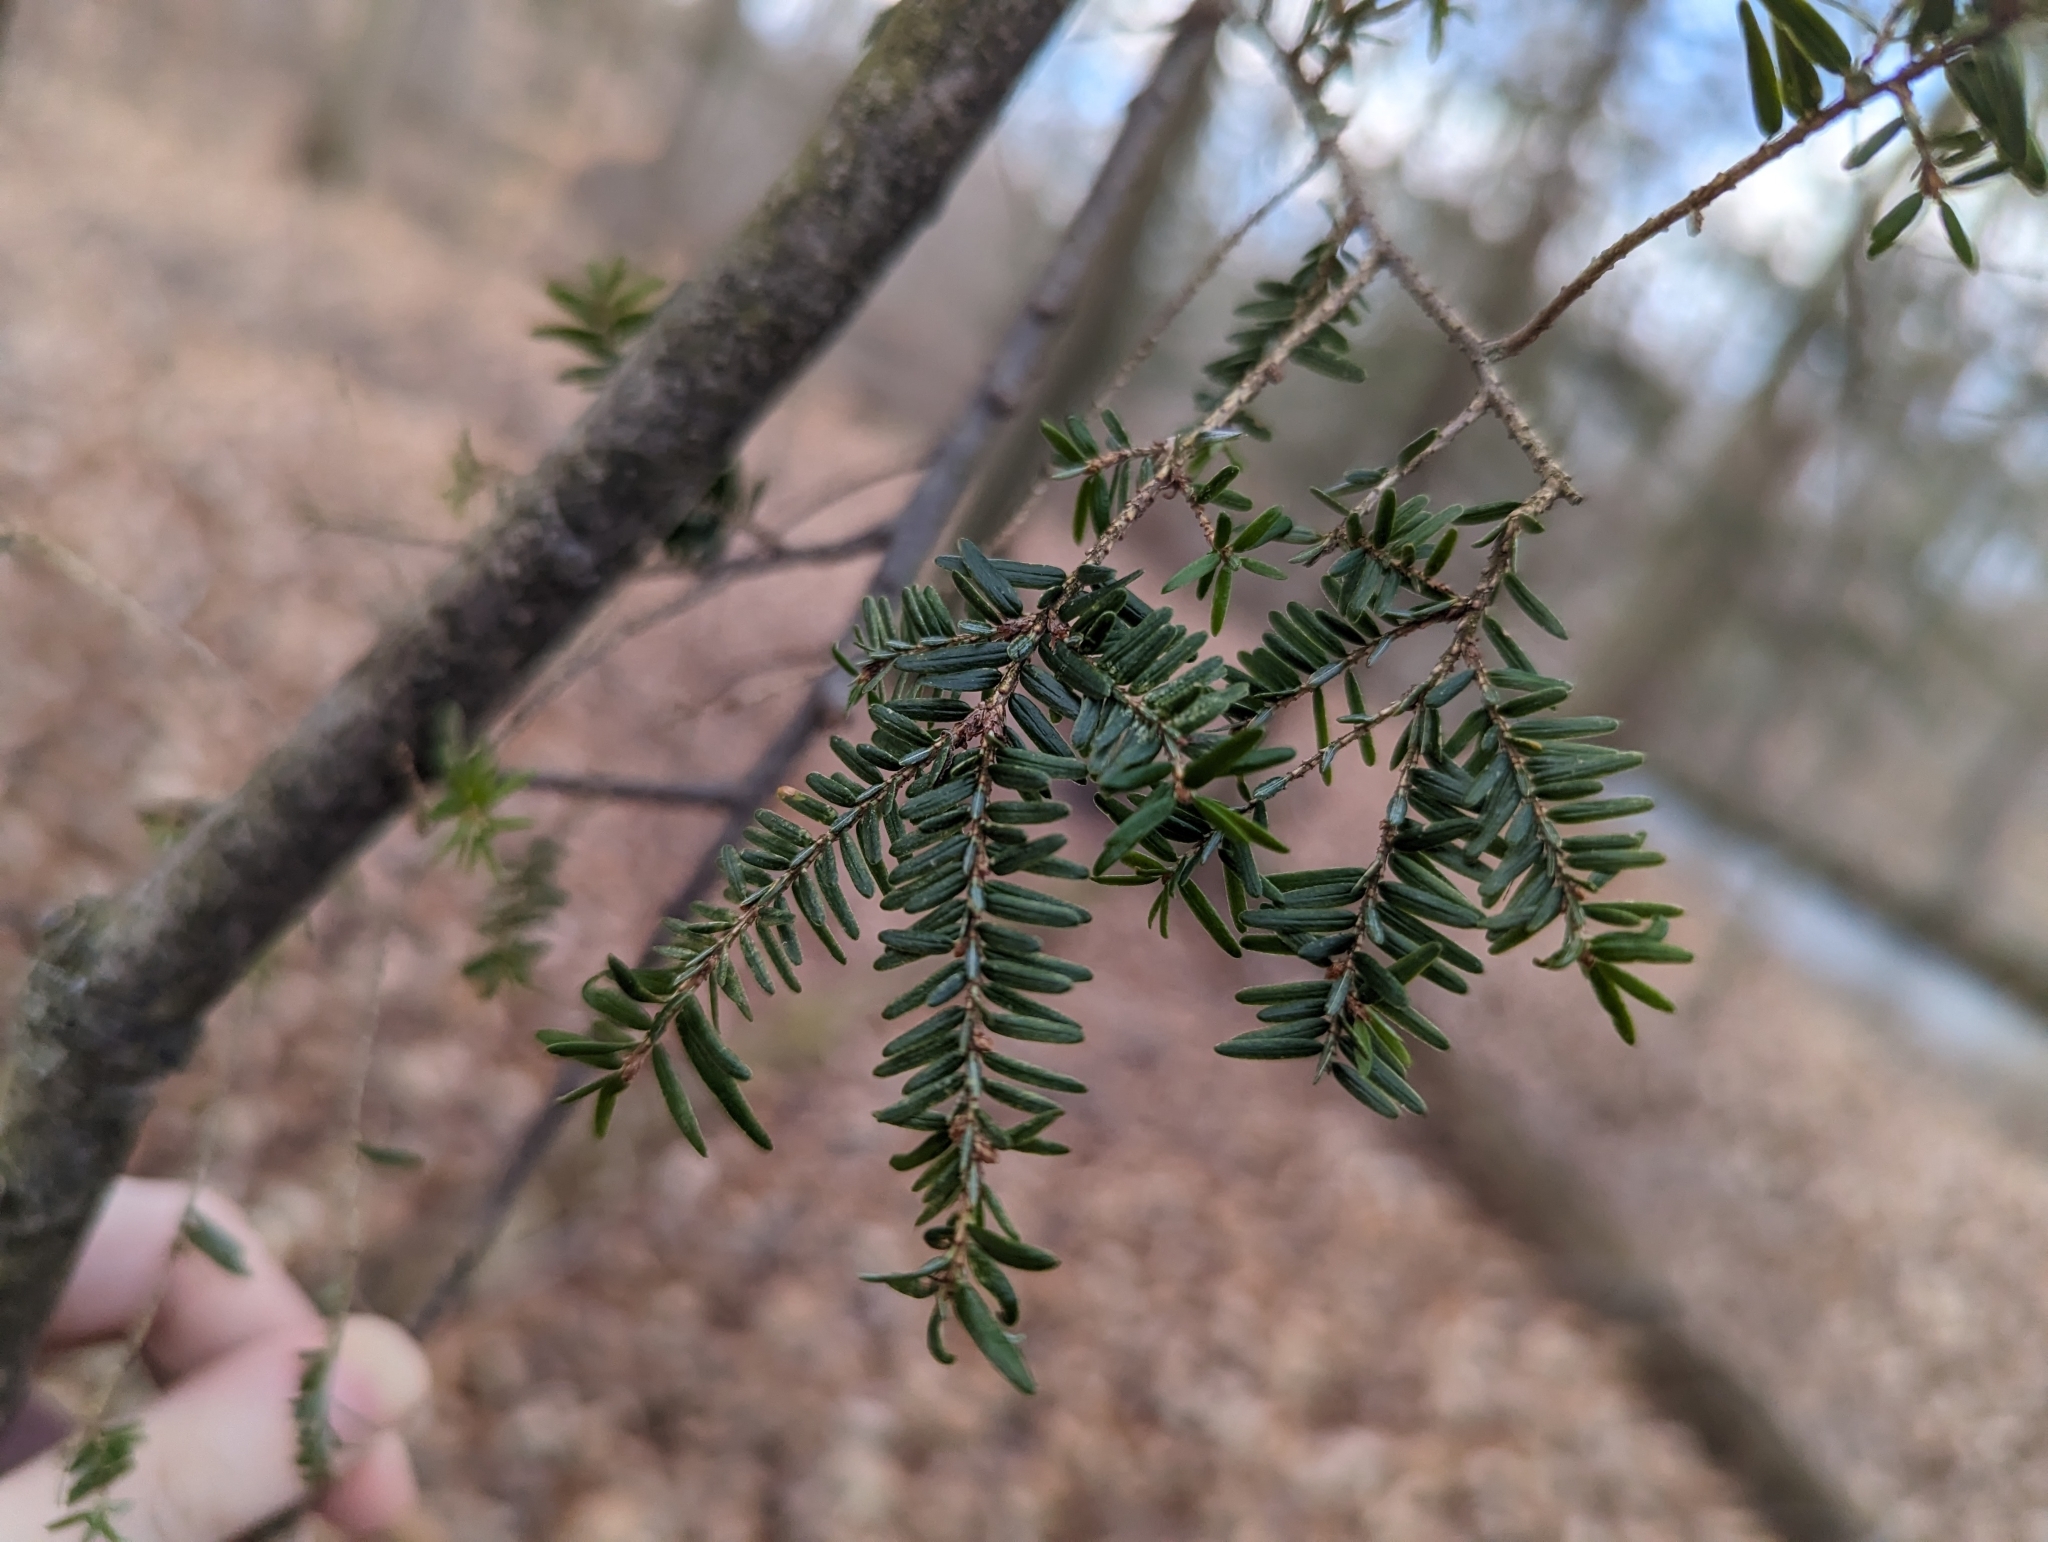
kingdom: Plantae
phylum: Tracheophyta
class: Pinopsida
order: Pinales
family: Pinaceae
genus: Tsuga
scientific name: Tsuga canadensis
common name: Eastern hemlock
